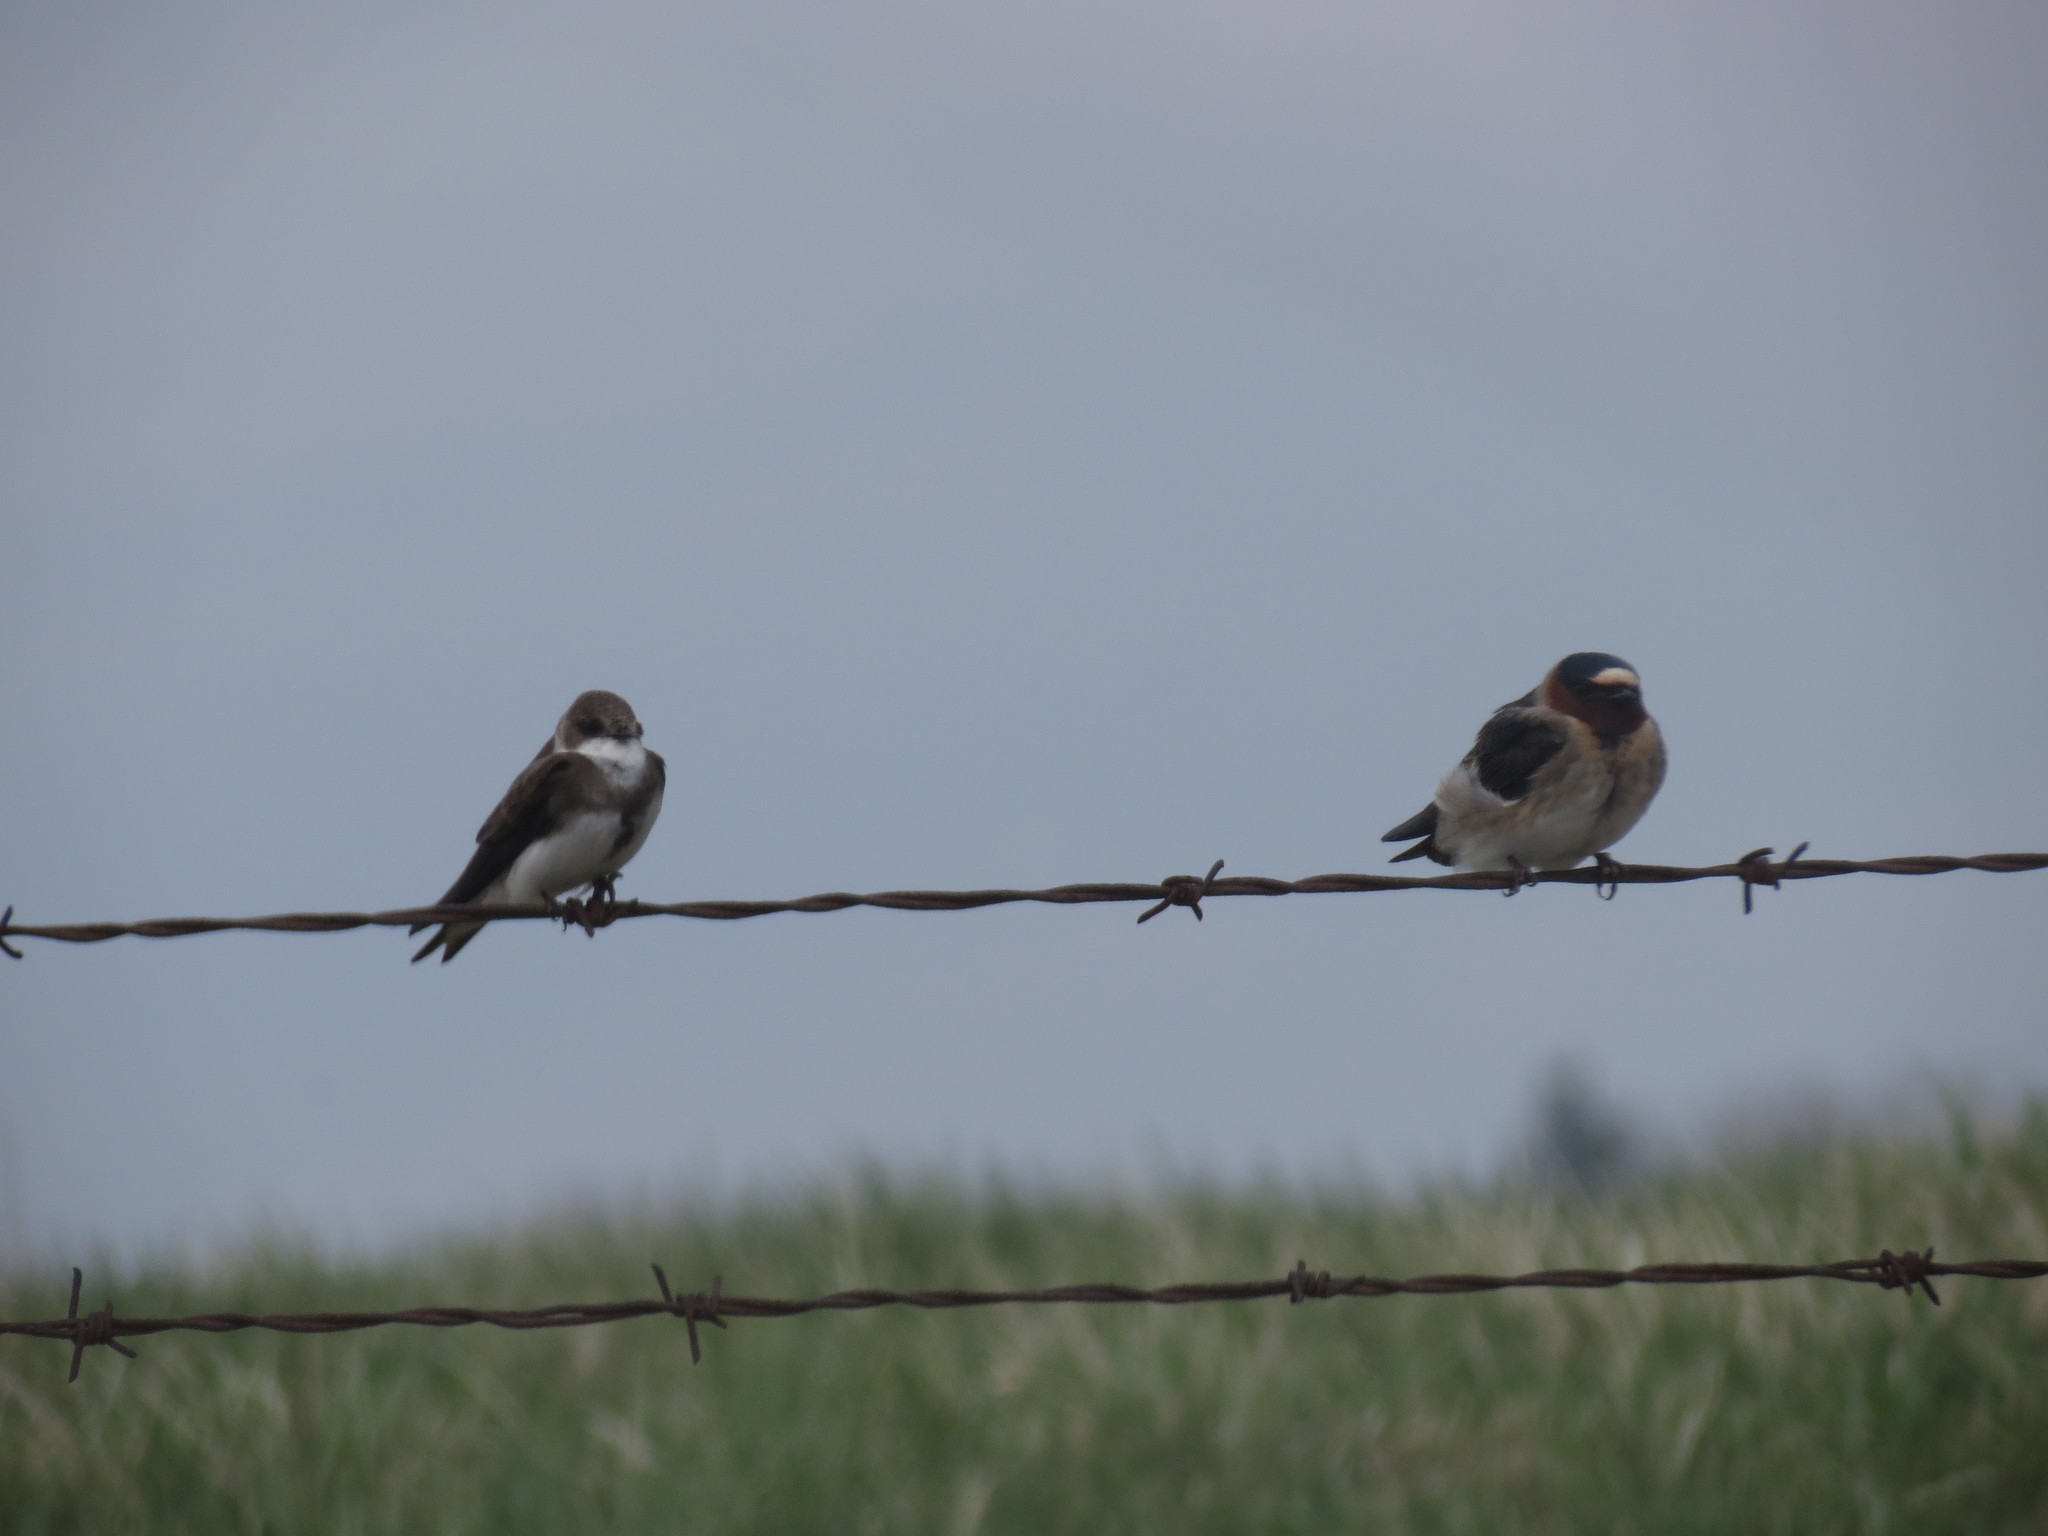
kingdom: Animalia
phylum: Chordata
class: Aves
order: Passeriformes
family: Hirundinidae
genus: Riparia
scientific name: Riparia riparia
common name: Sand martin
